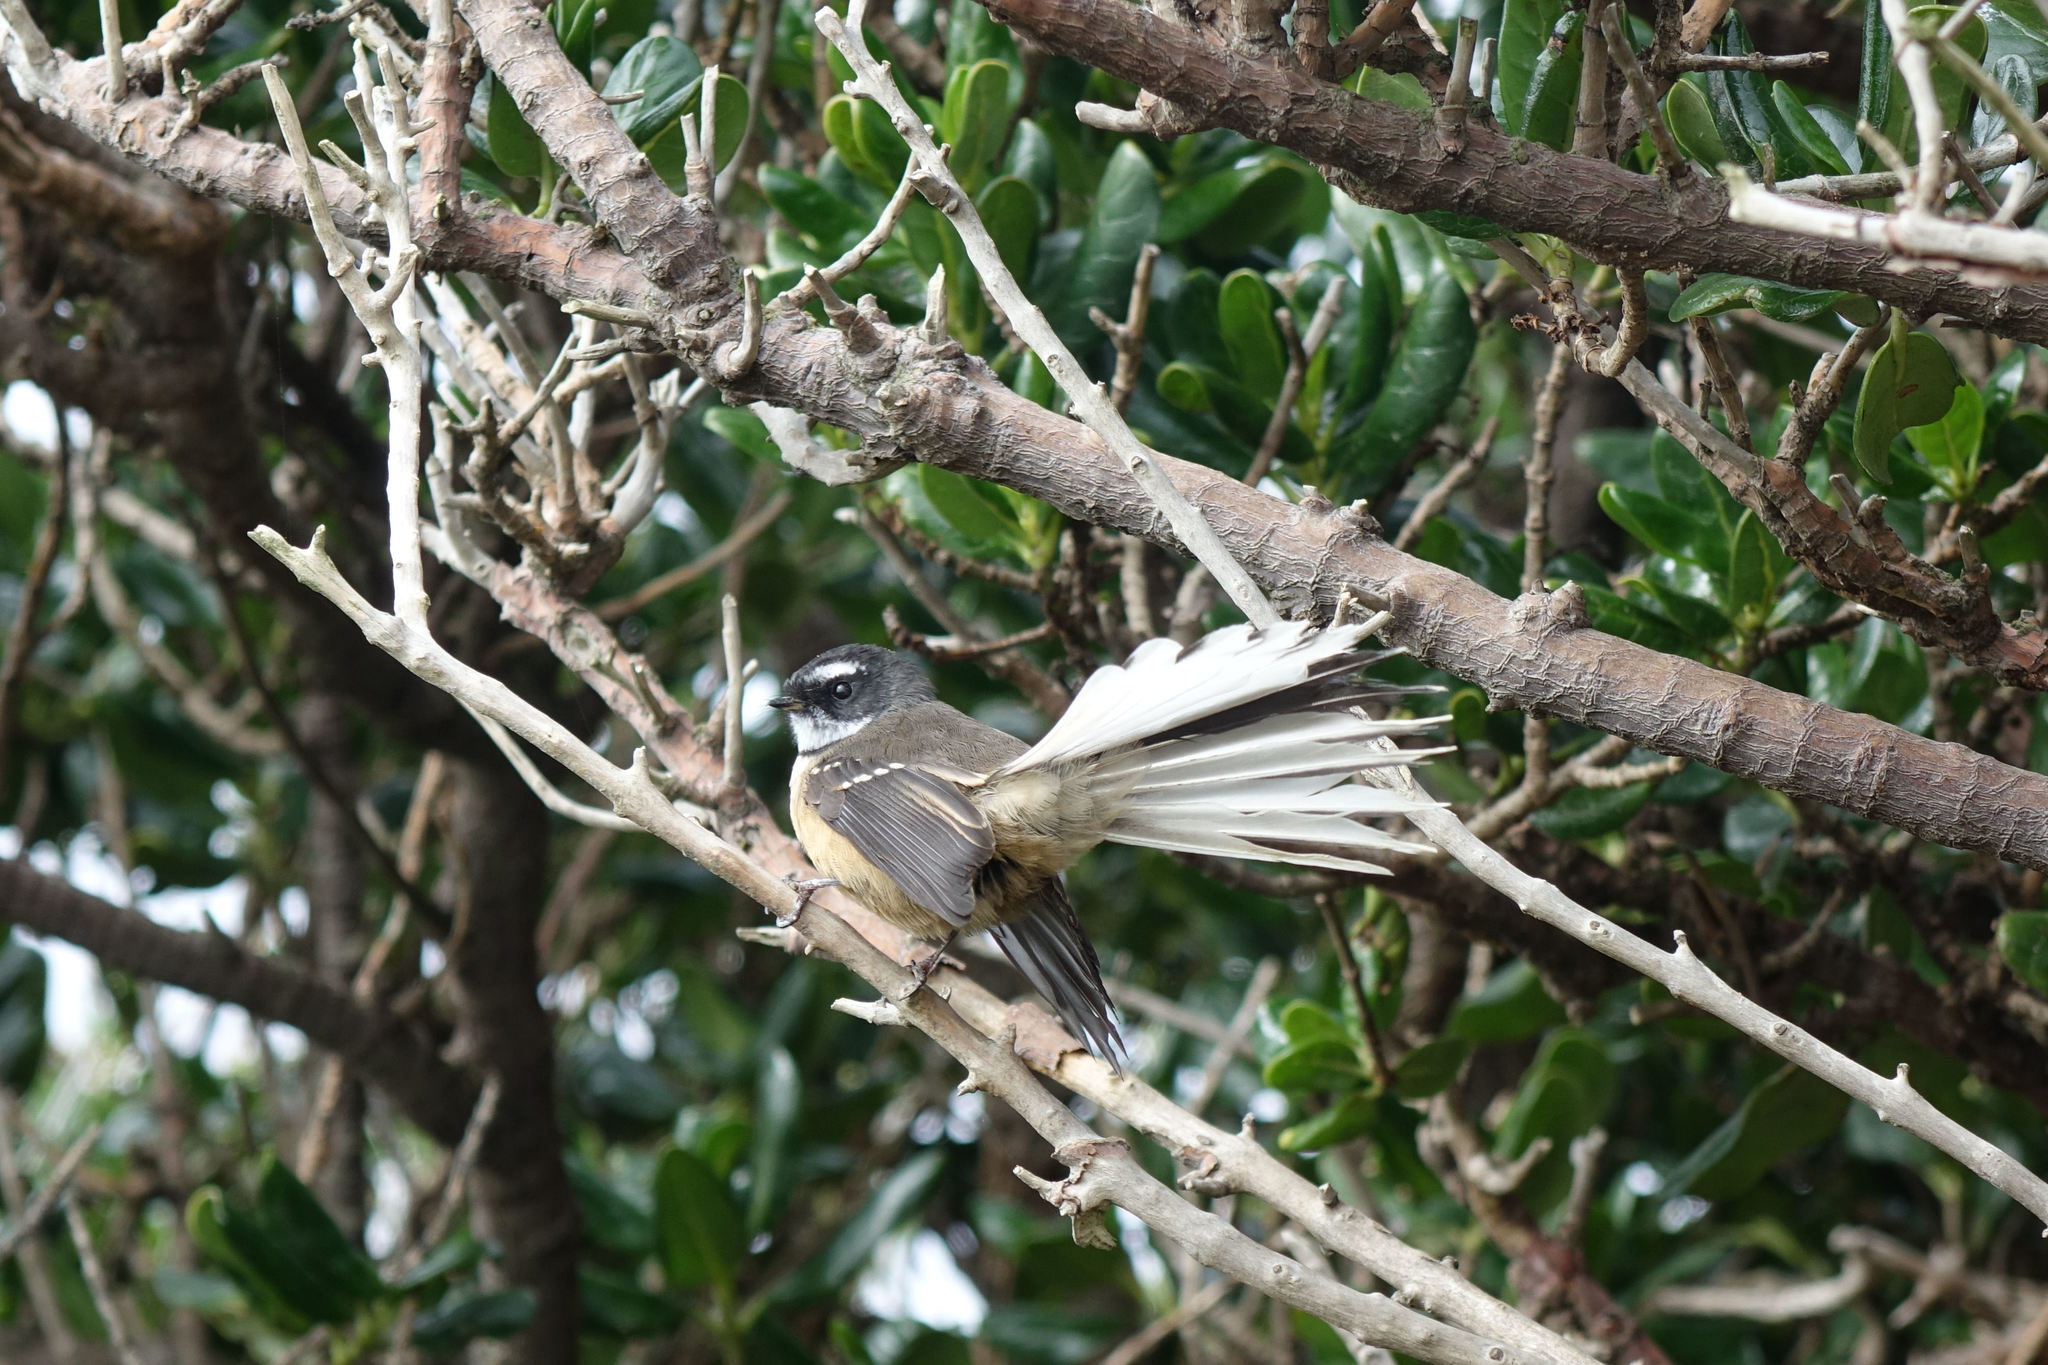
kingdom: Animalia
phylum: Chordata
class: Aves
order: Passeriformes
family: Rhipiduridae
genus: Rhipidura
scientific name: Rhipidura fuliginosa
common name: New zealand fantail
